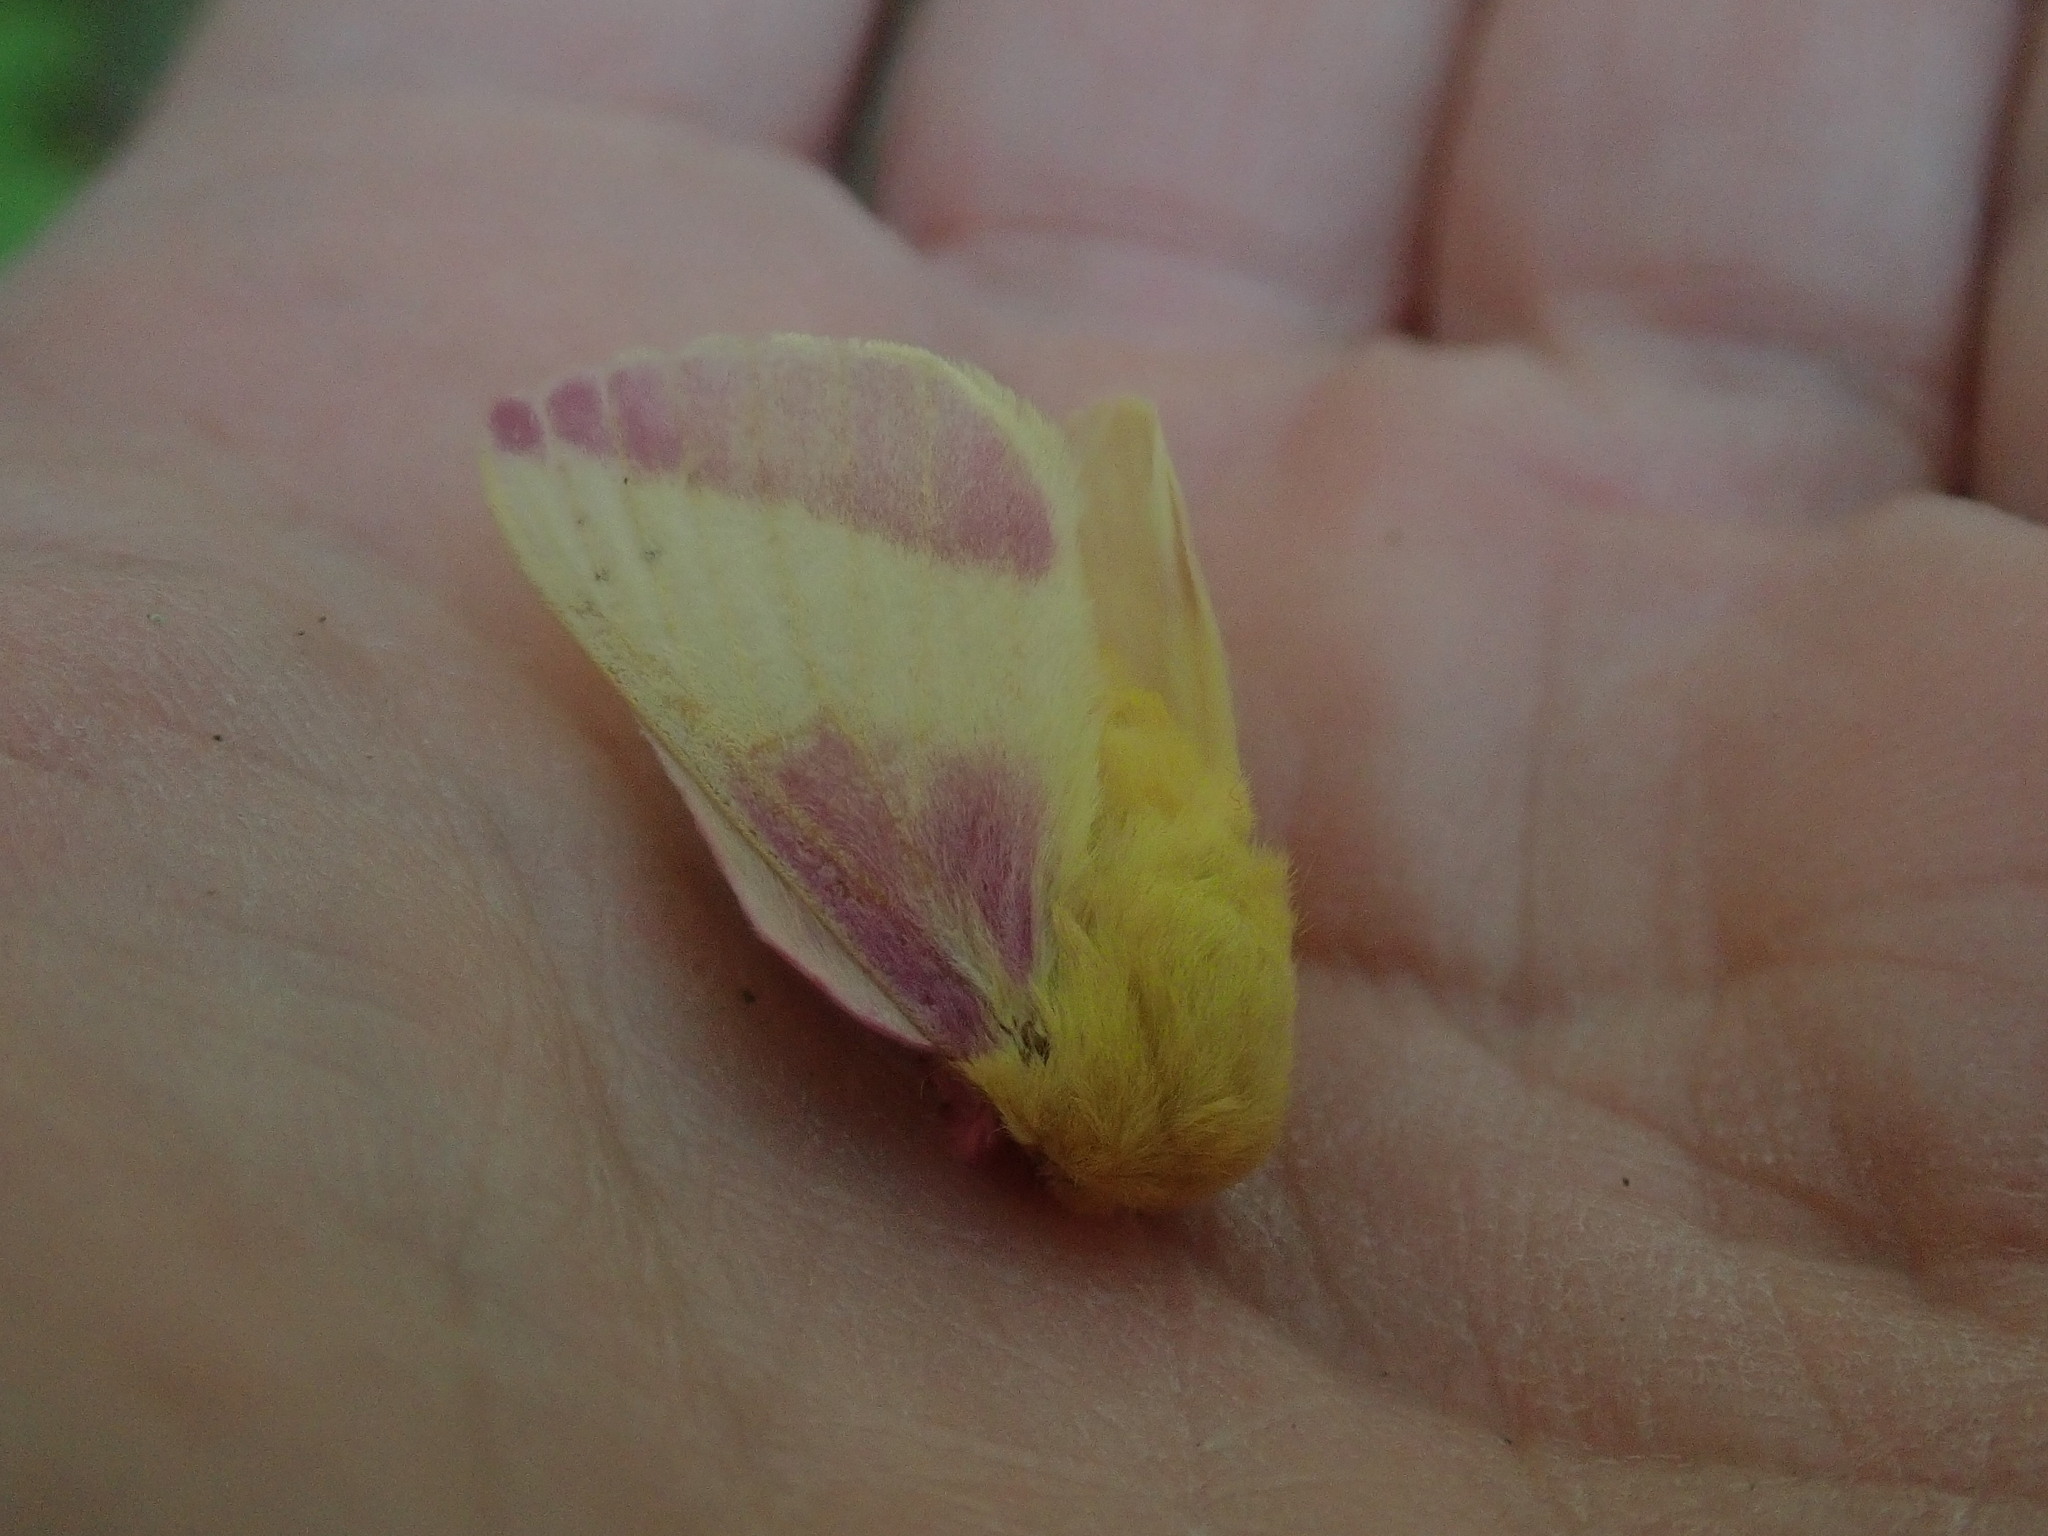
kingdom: Animalia
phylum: Arthropoda
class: Insecta
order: Lepidoptera
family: Saturniidae
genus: Dryocampa
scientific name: Dryocampa rubicunda
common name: Rosy maple moth
